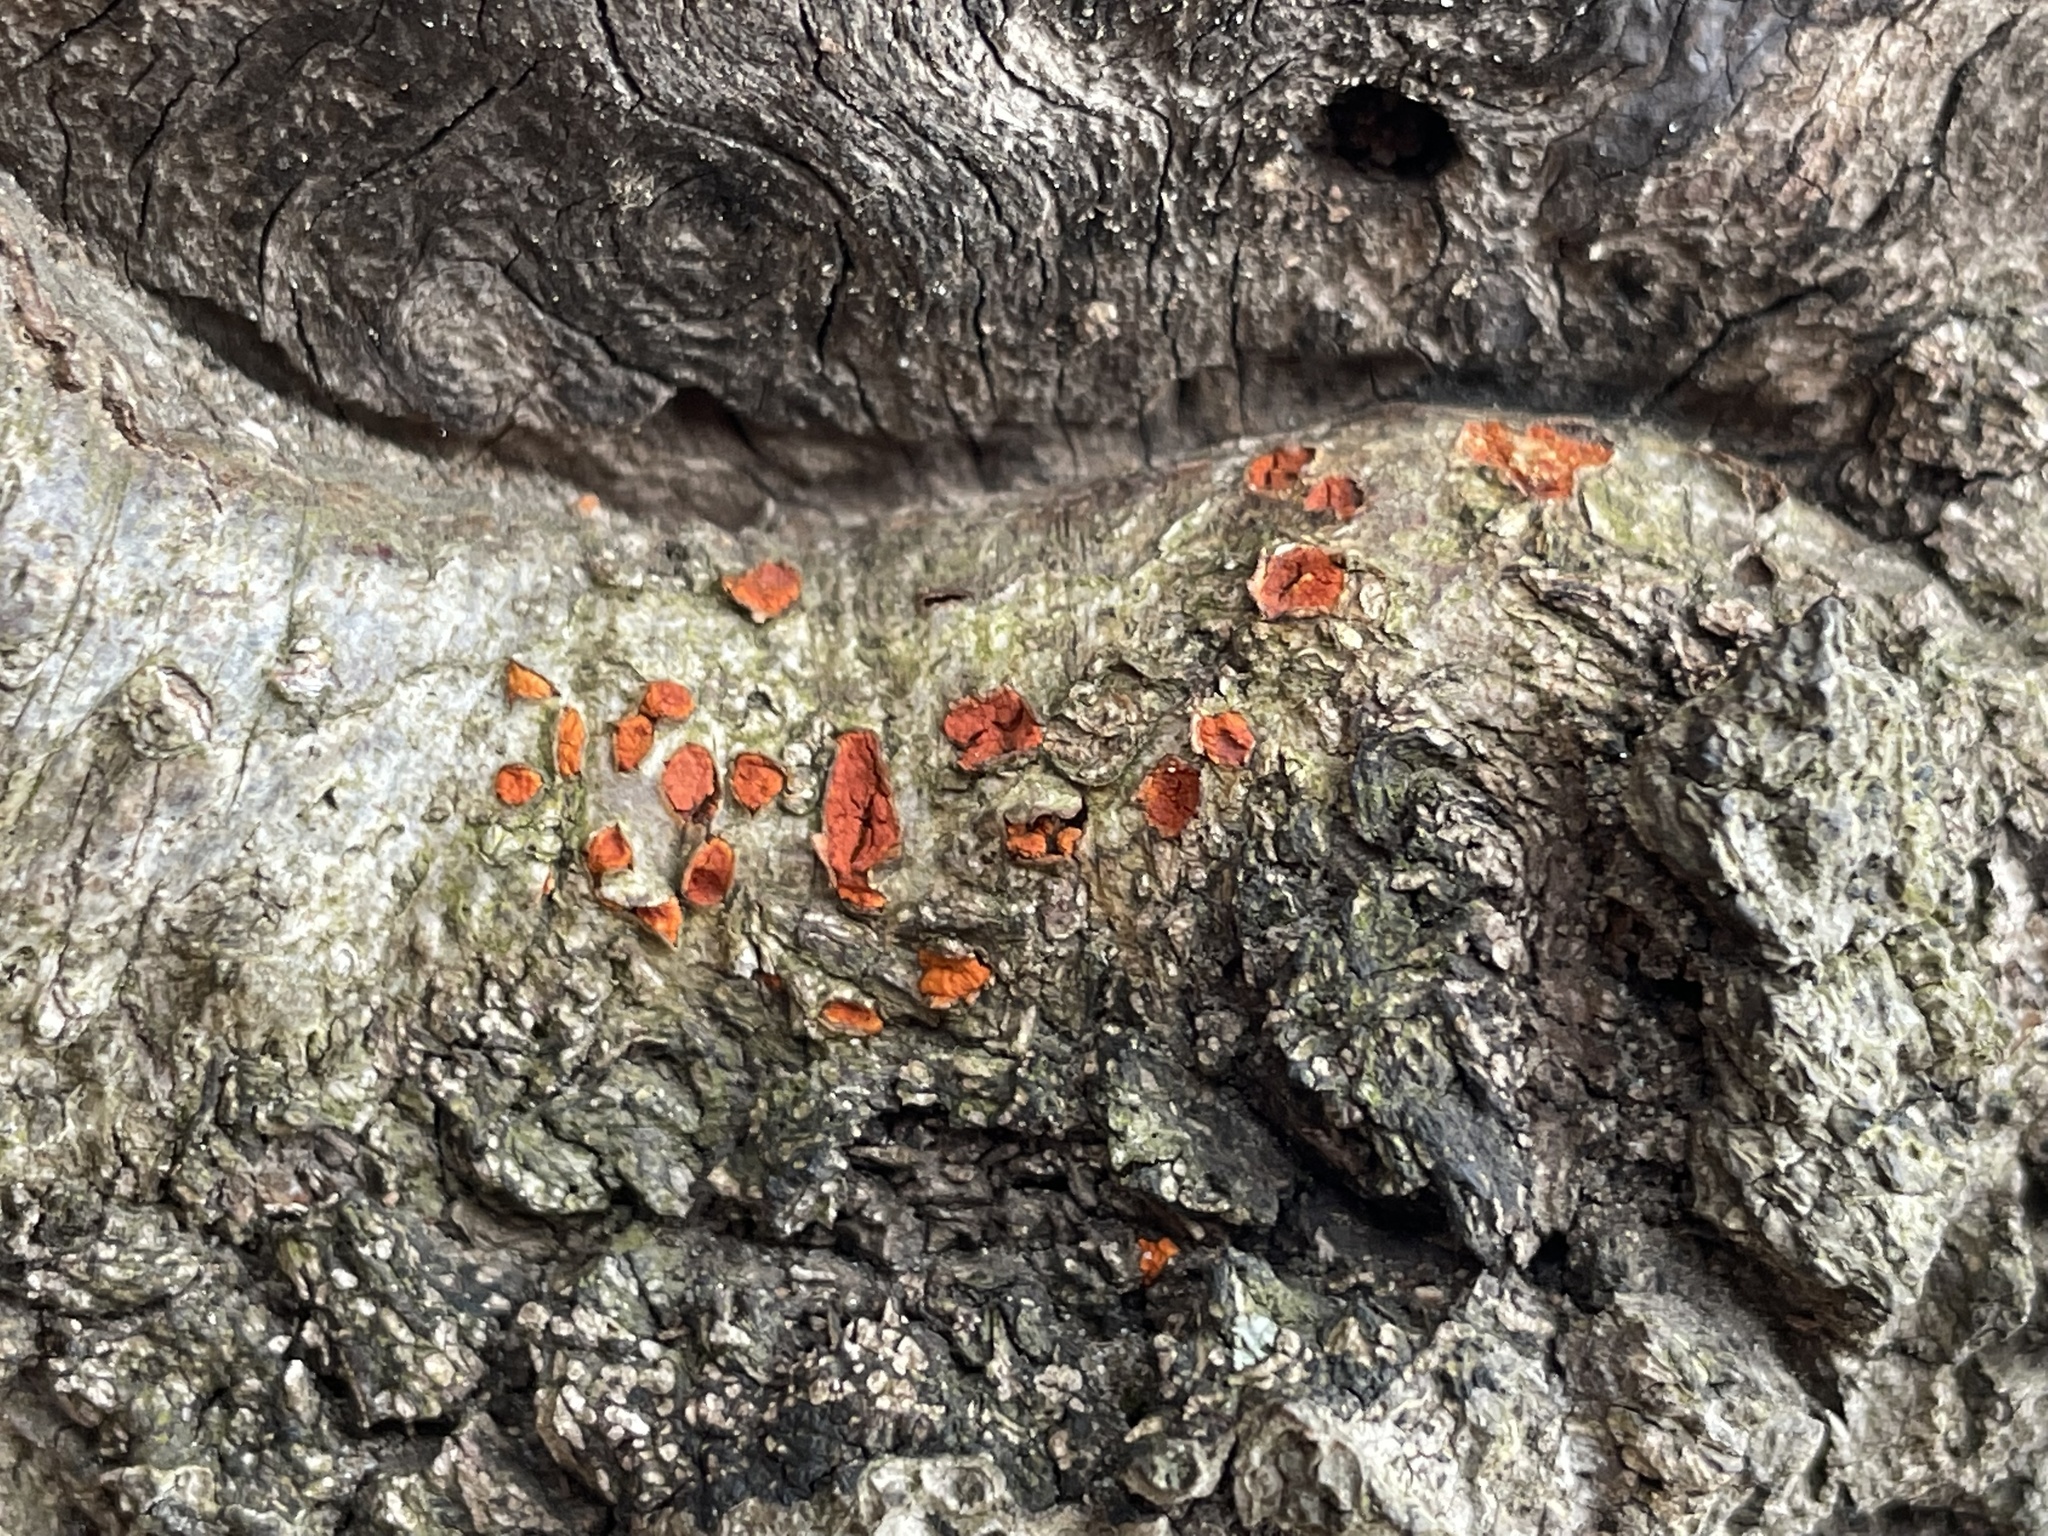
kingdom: Fungi
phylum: Ascomycota
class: Sordariomycetes
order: Diaporthales
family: Cryphonectriaceae
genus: Amphilogia
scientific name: Amphilogia gyrosa
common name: Orange hobnail canker
